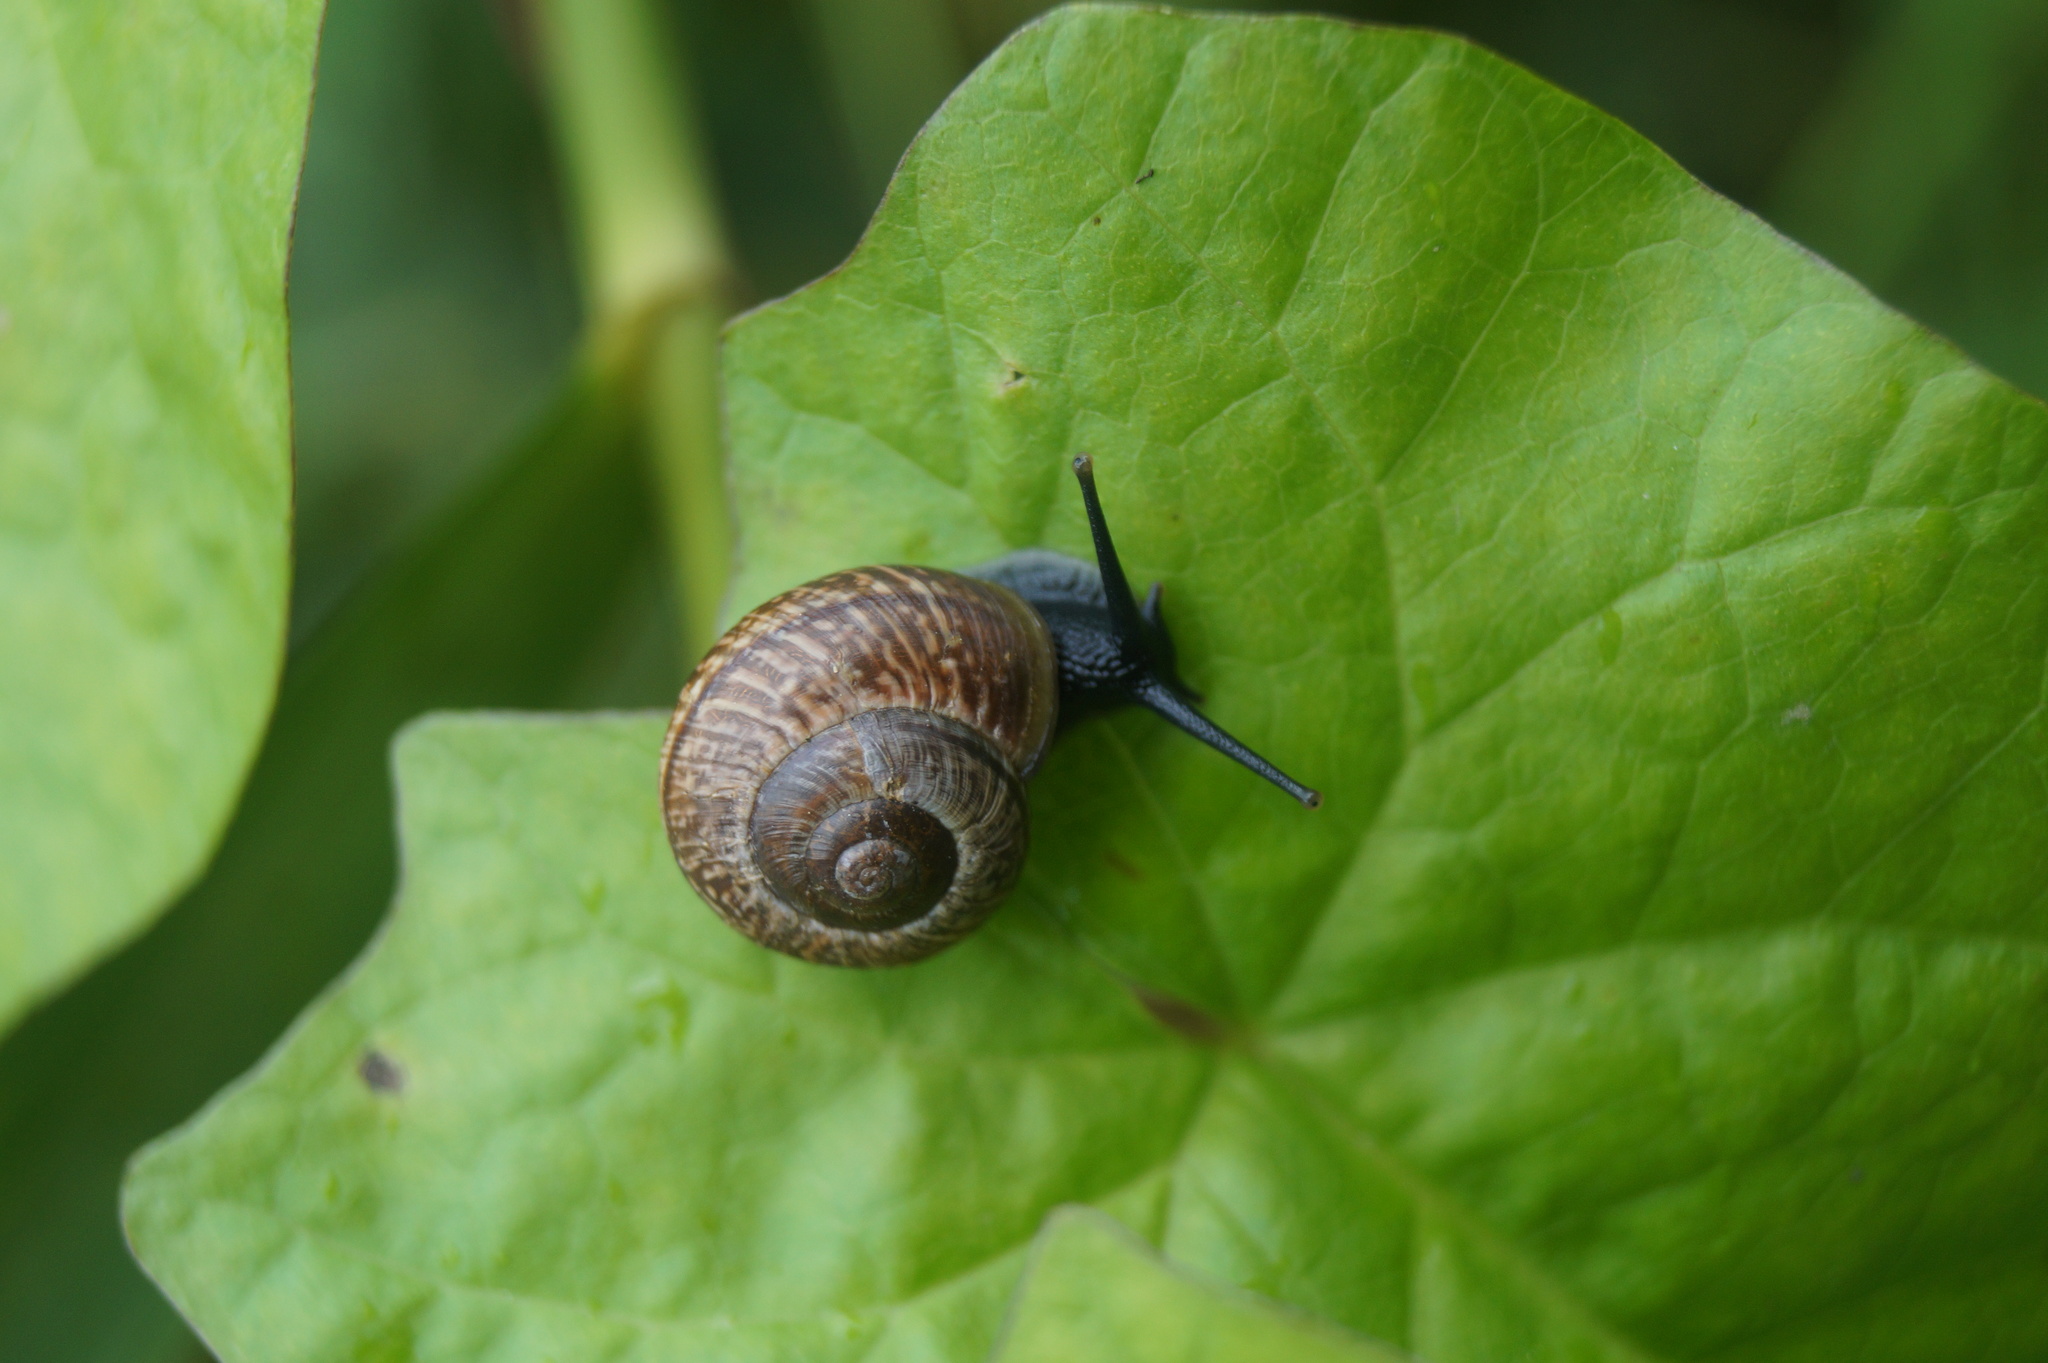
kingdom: Animalia
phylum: Mollusca
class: Gastropoda
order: Stylommatophora
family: Helicidae
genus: Arianta
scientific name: Arianta arbustorum
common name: Copse snail
